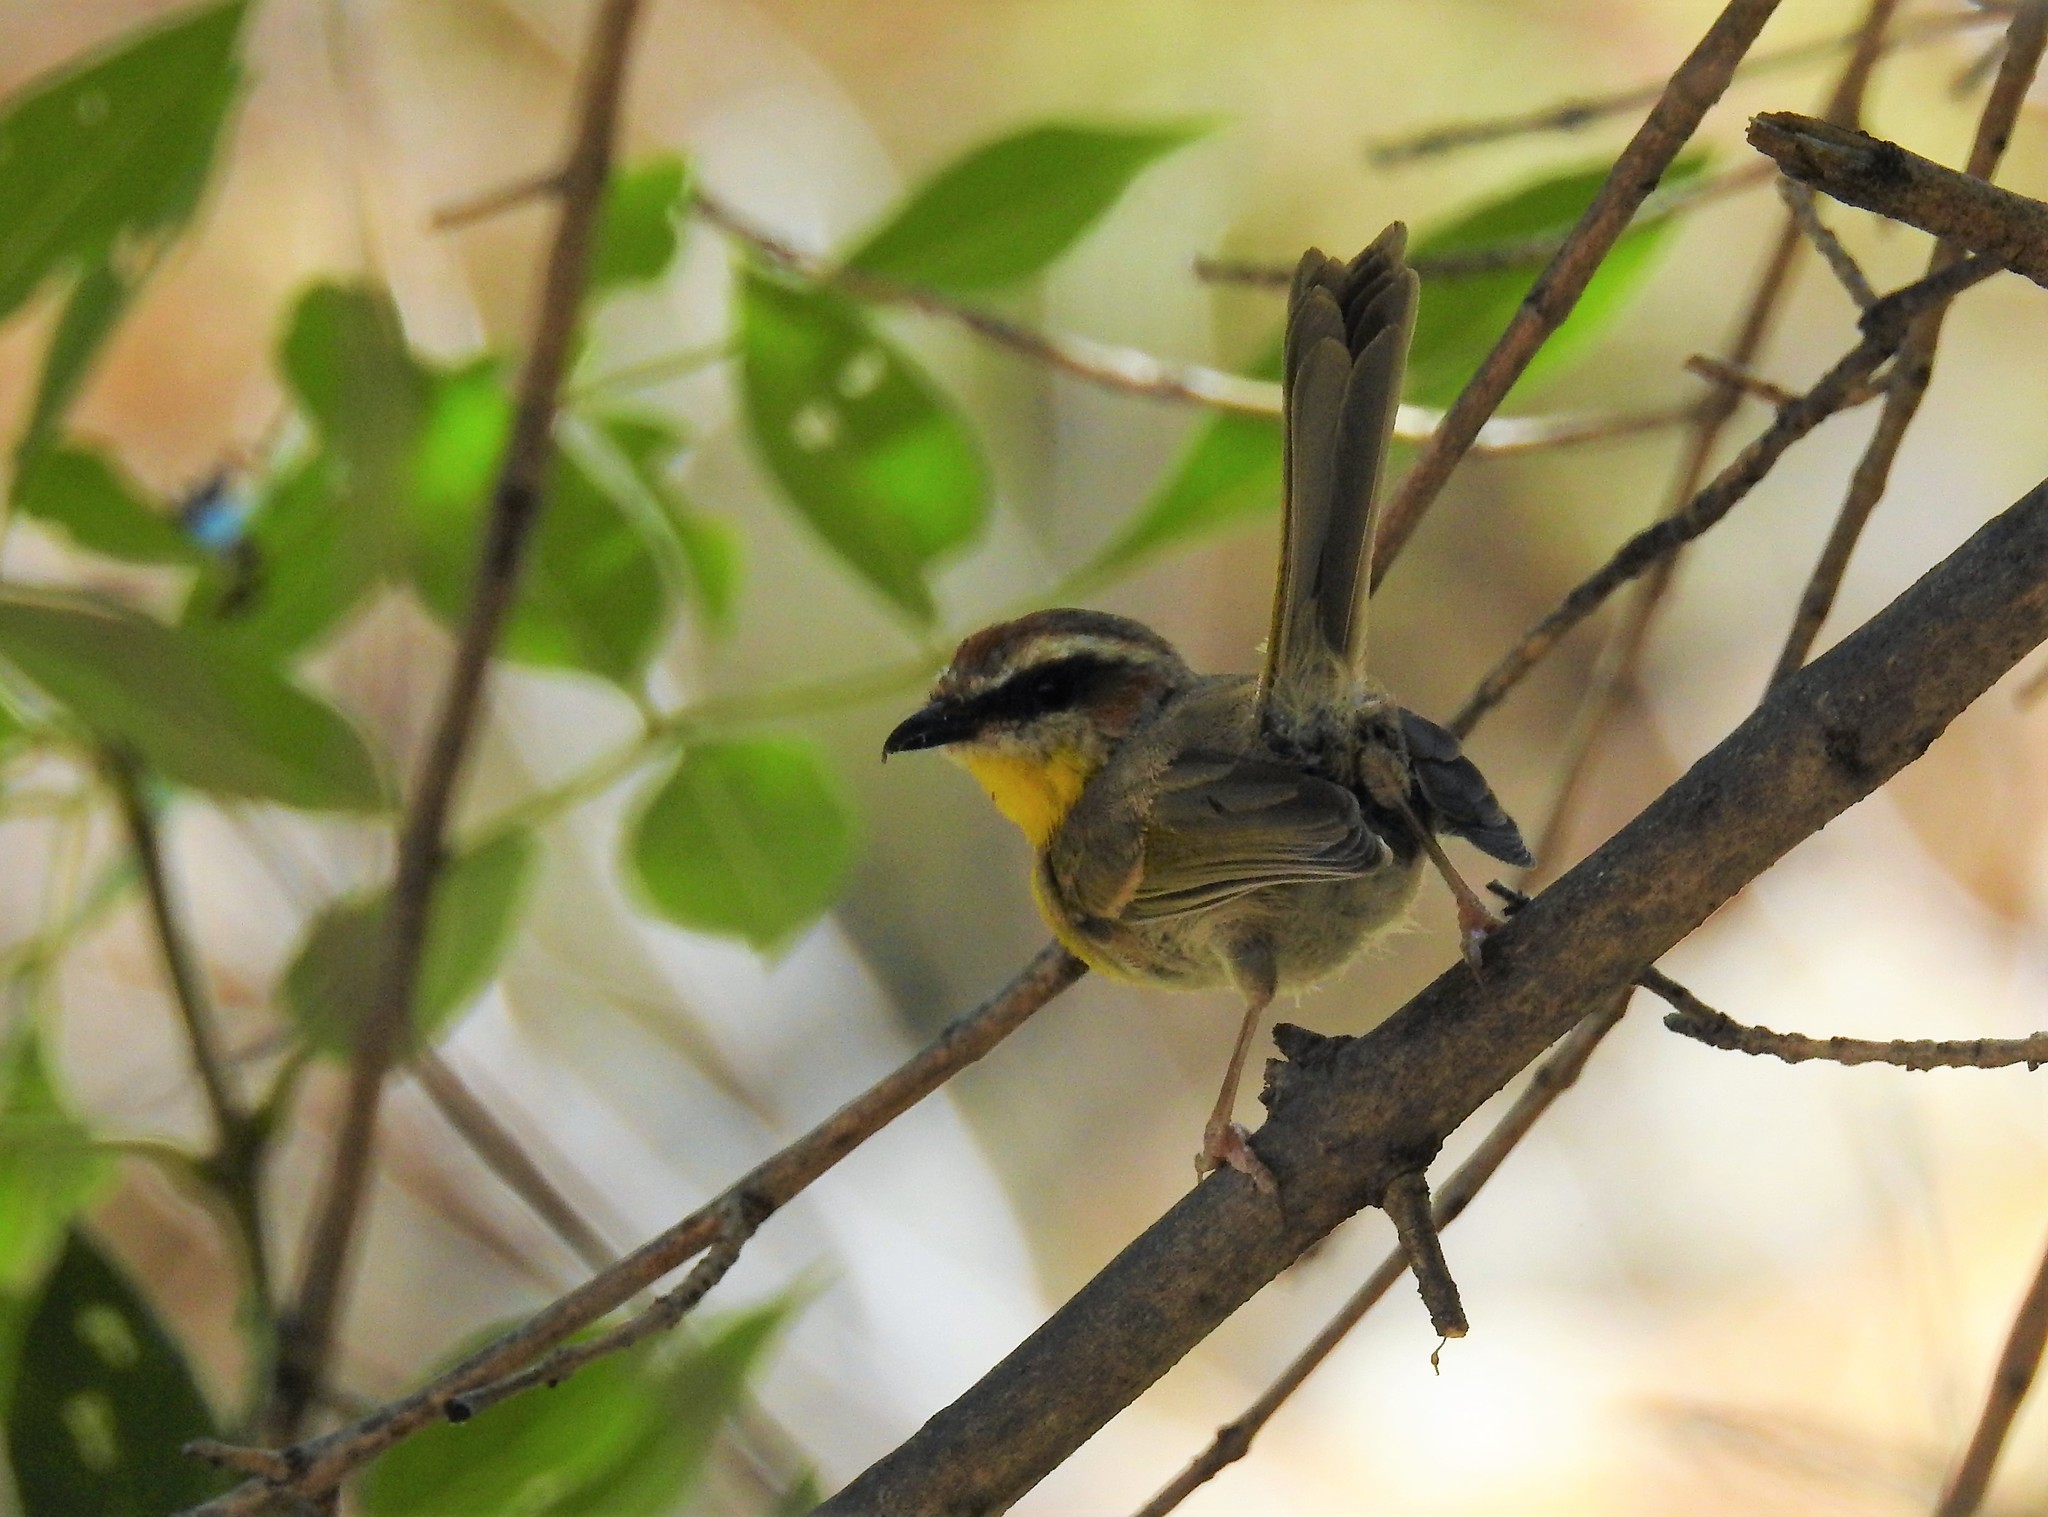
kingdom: Animalia
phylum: Chordata
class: Aves
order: Passeriformes
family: Parulidae
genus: Basileuterus
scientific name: Basileuterus rufifrons
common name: Rufous-capped warbler
